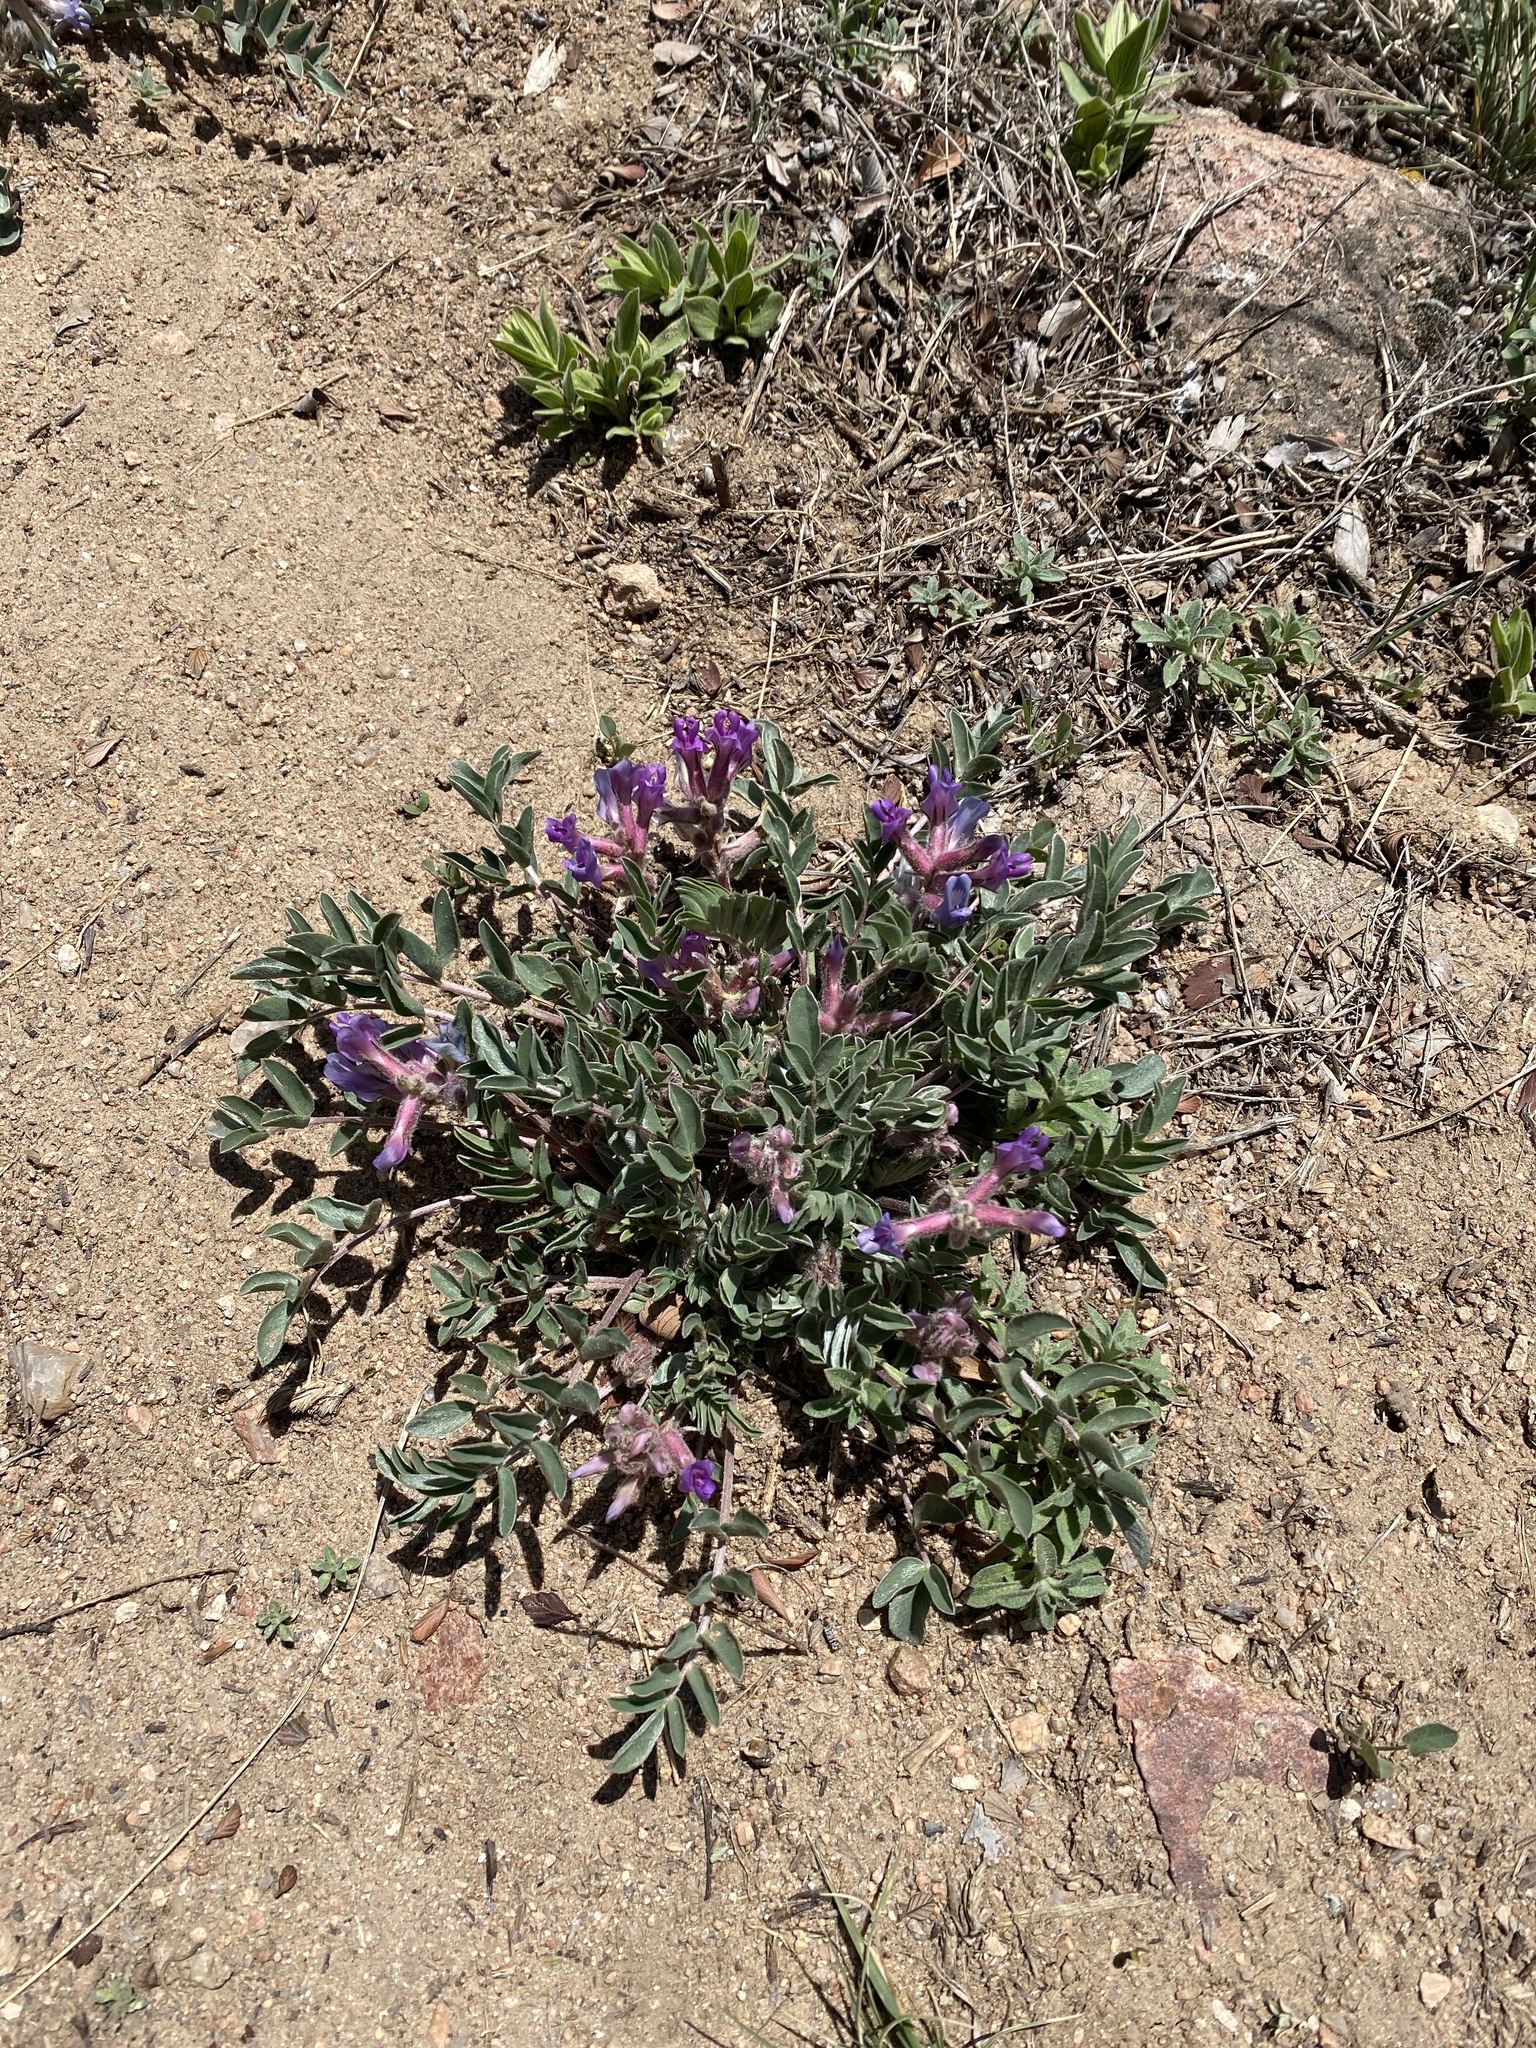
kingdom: Plantae
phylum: Tracheophyta
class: Magnoliopsida
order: Fabales
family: Fabaceae
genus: Astragalus
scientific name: Astragalus shortianus
